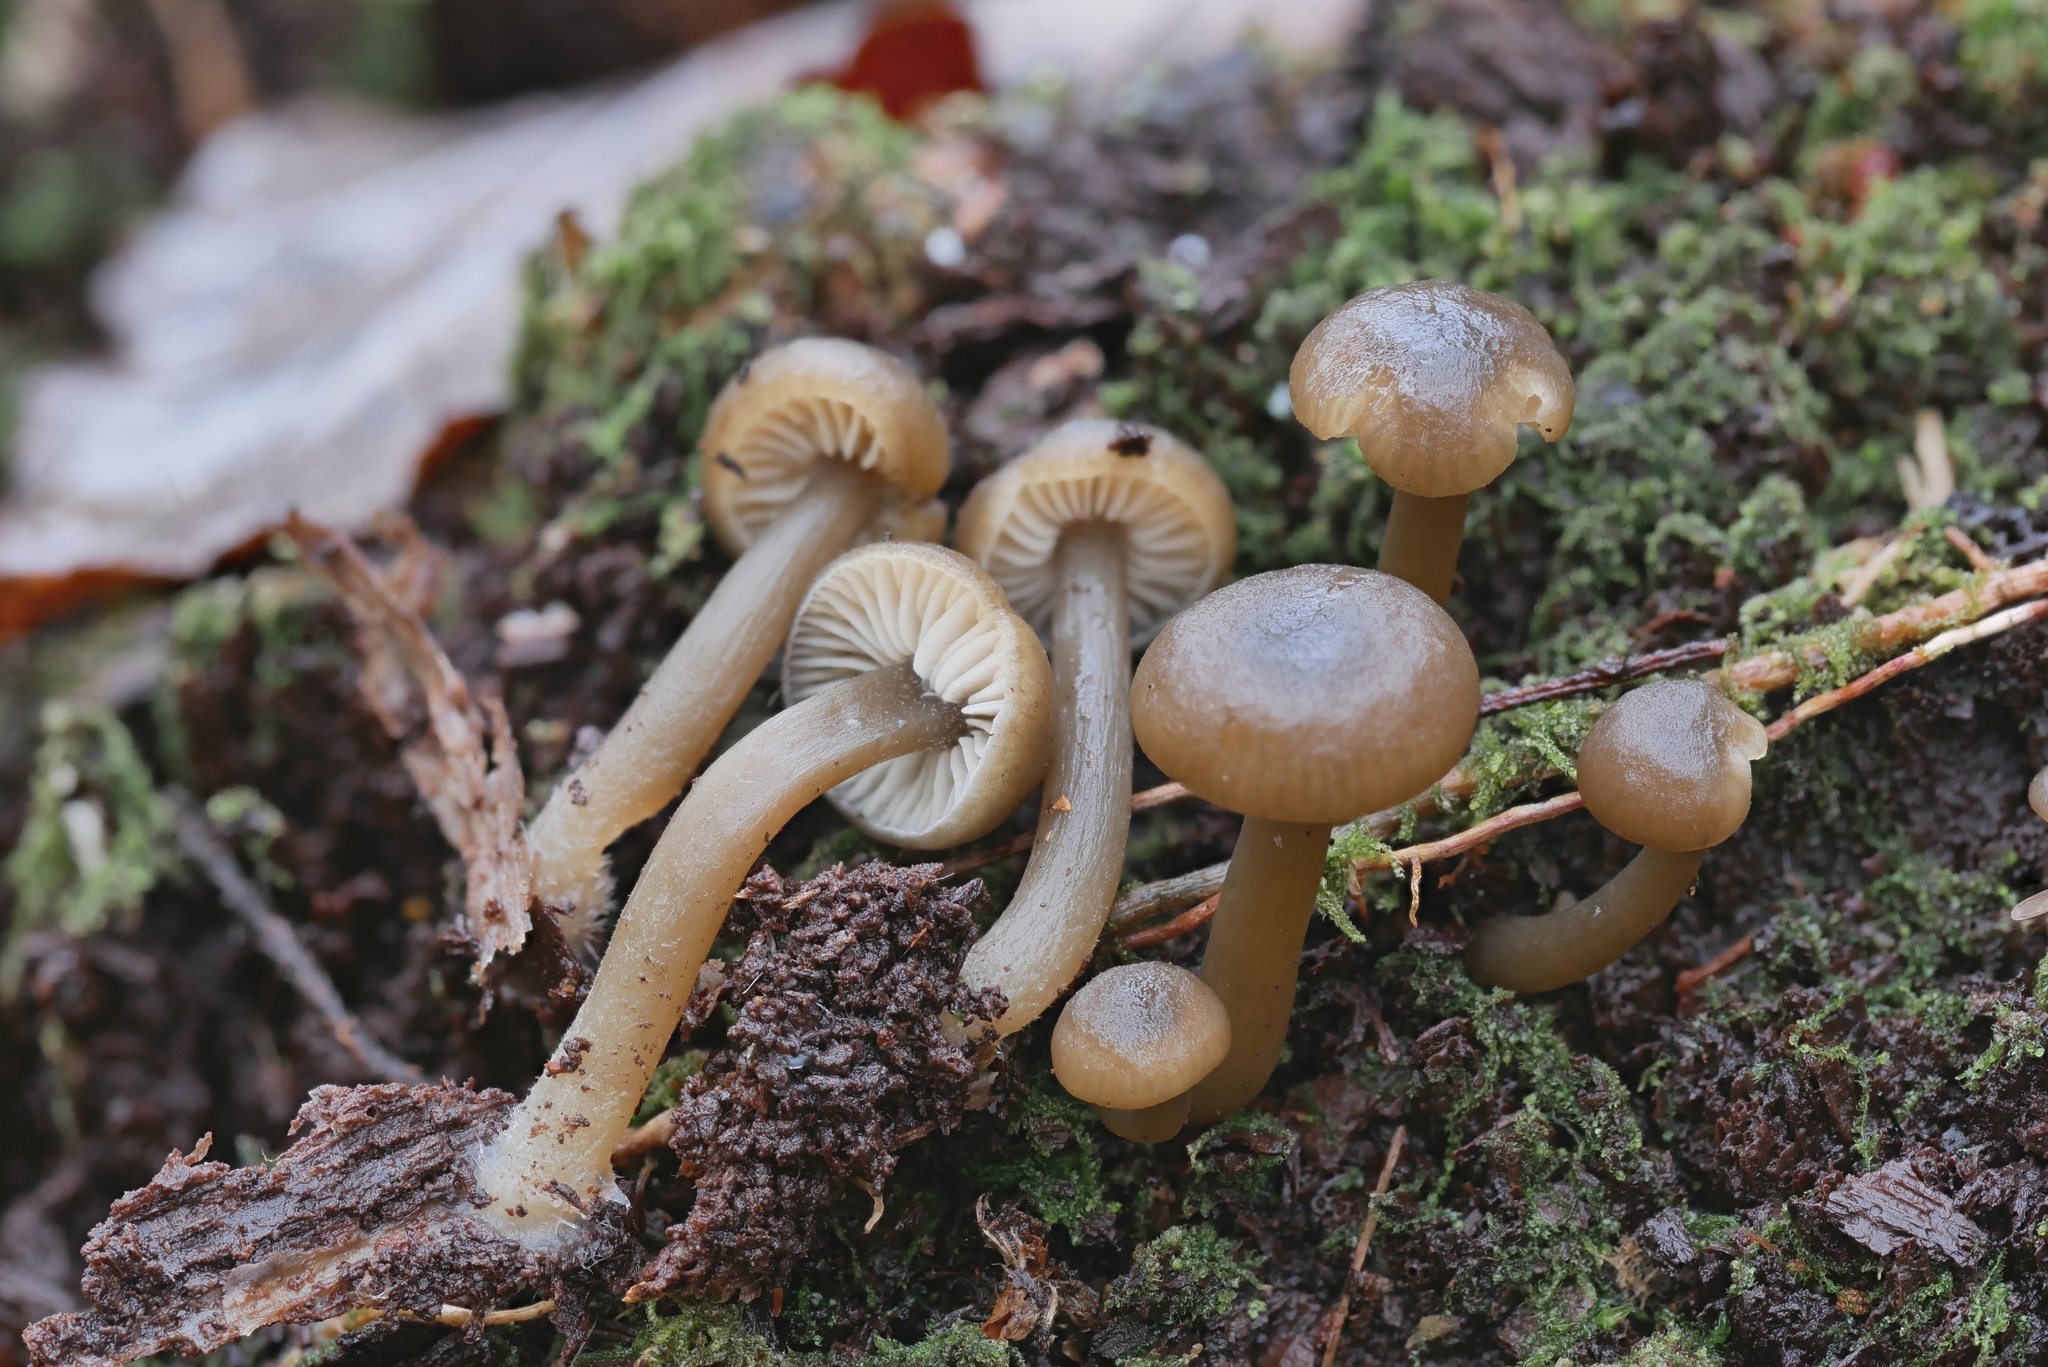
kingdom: Fungi
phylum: Basidiomycota
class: Agaricomycetes
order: Agaricales
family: Tricholomataceae
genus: Clitocybe
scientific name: Clitocybe subditopoda
